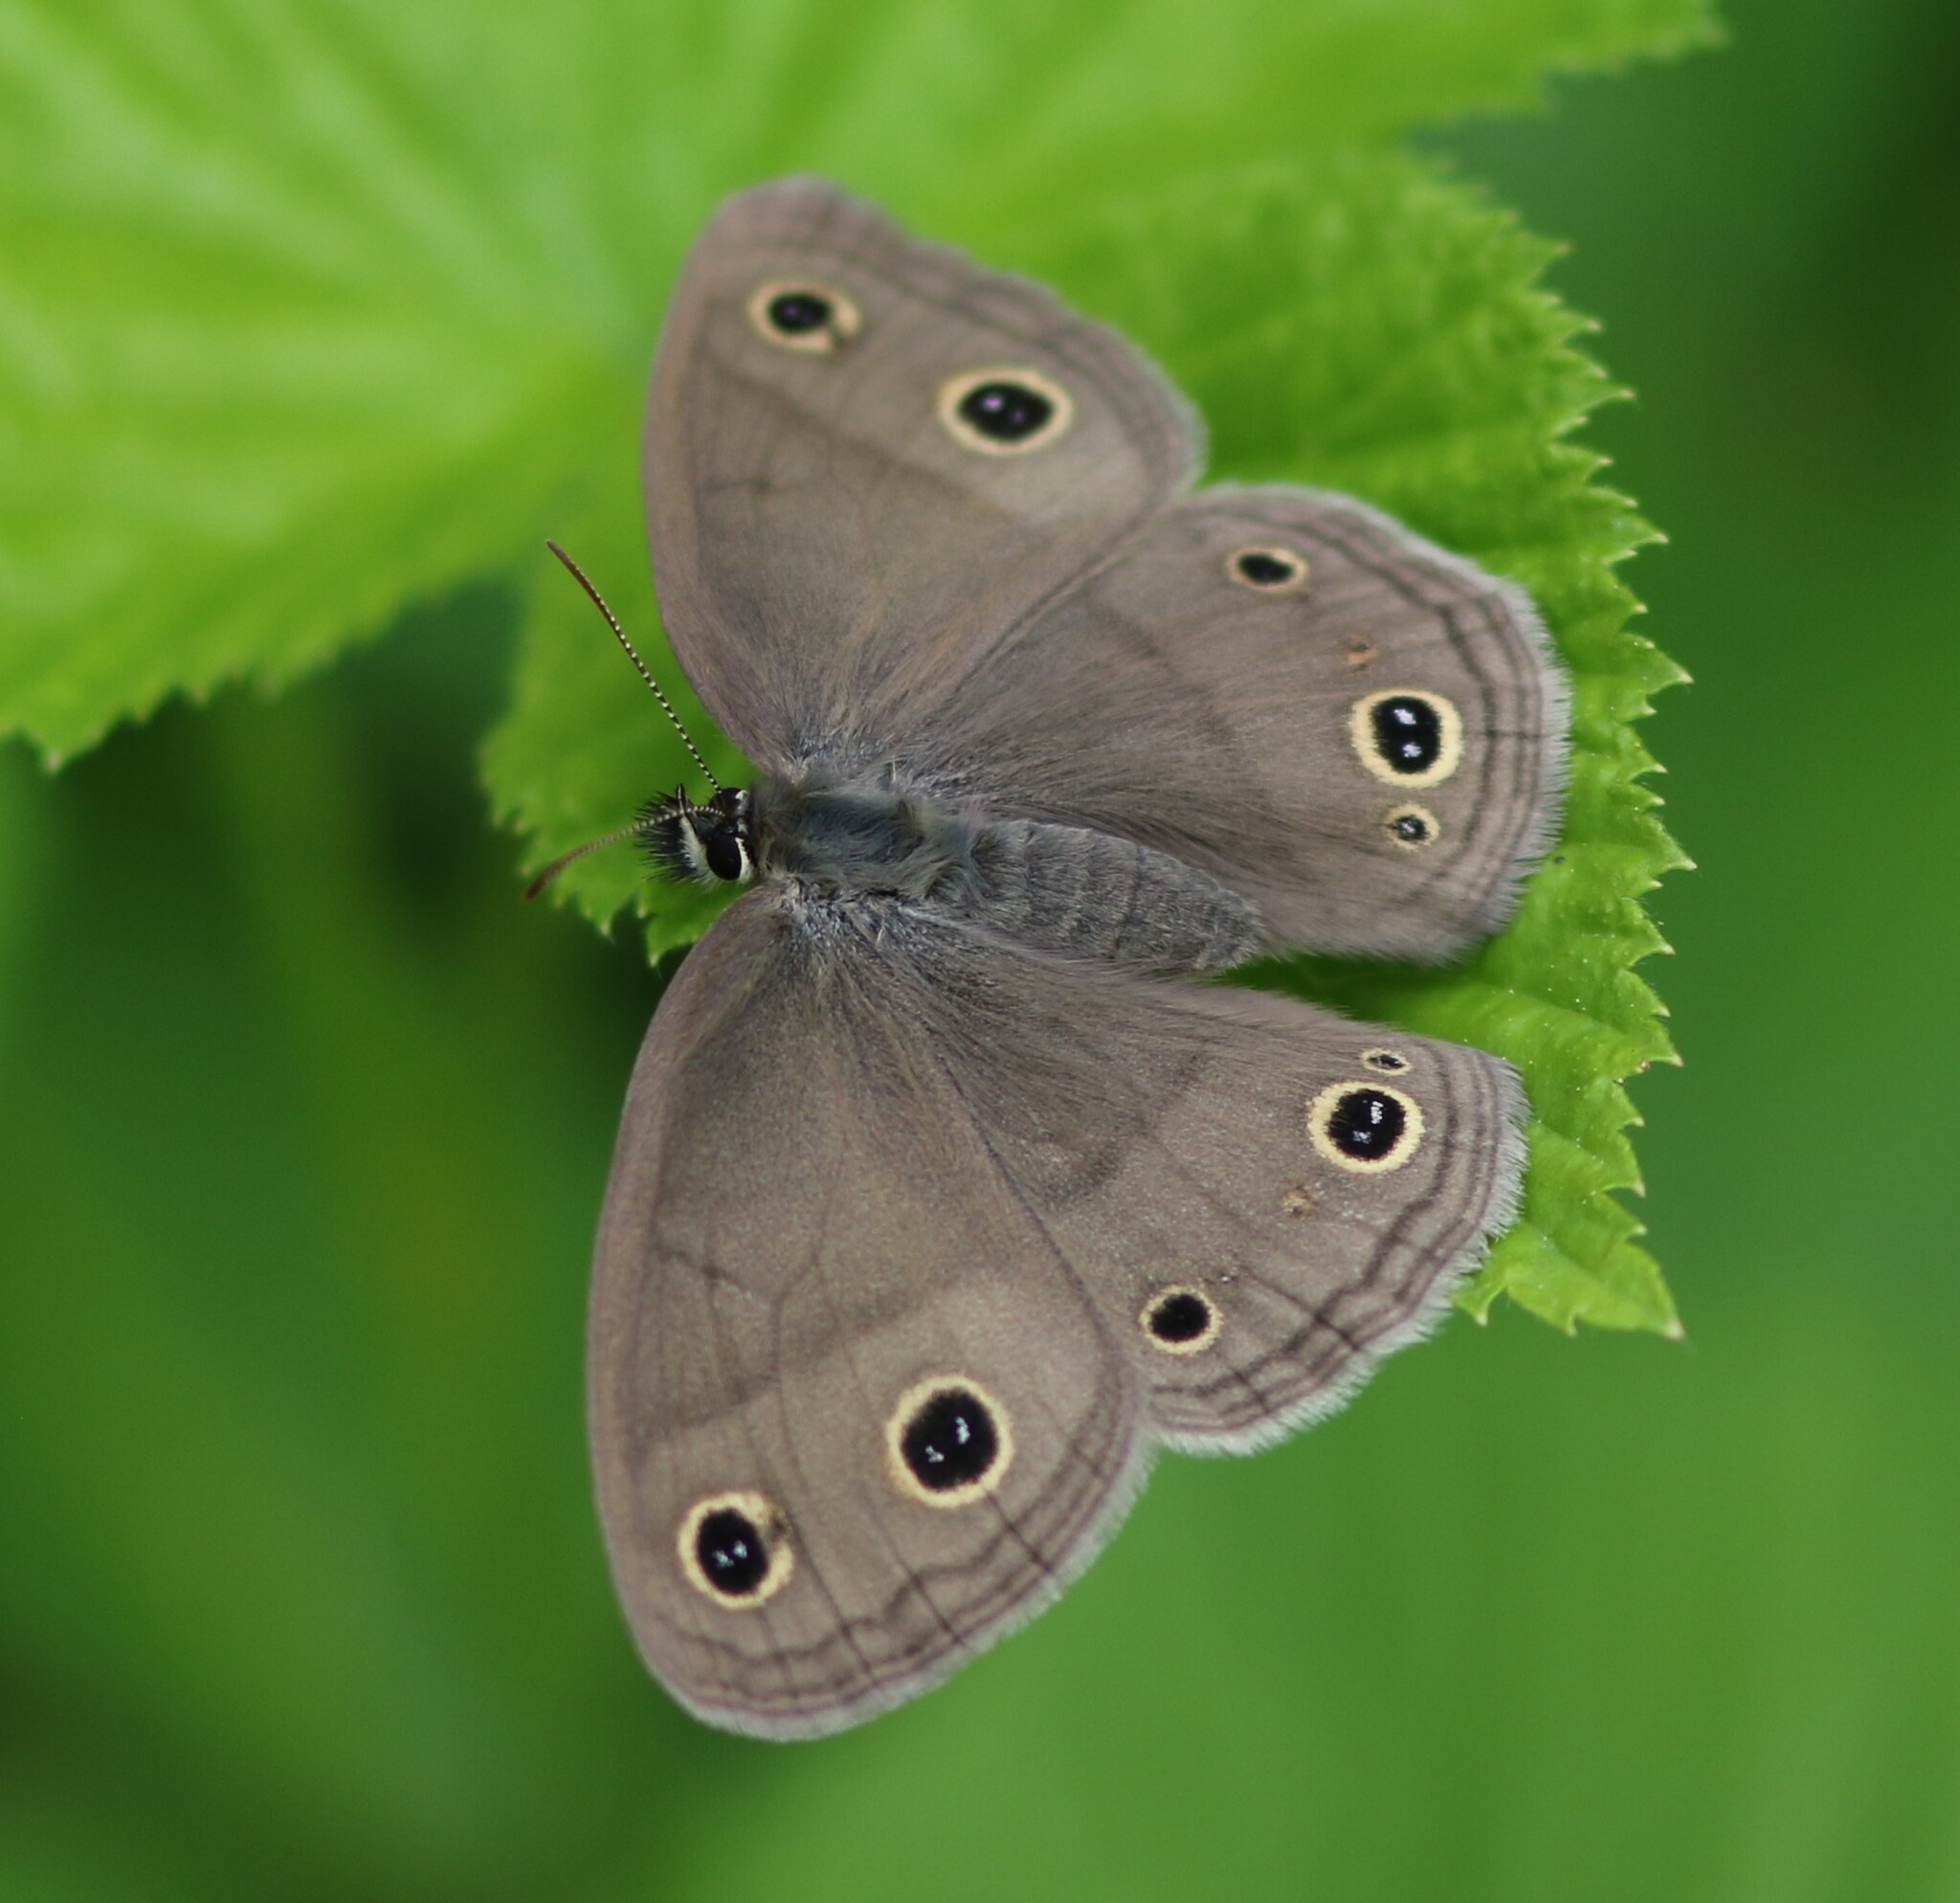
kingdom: Animalia
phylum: Arthropoda
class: Insecta
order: Lepidoptera
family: Nymphalidae
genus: Euptychia
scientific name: Euptychia cymela
